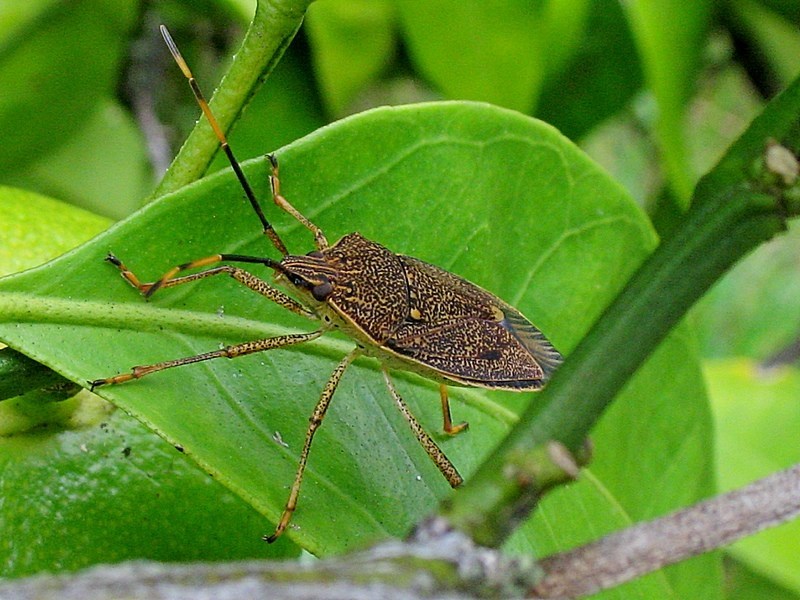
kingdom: Animalia
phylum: Arthropoda
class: Insecta
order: Hemiptera
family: Pentatomidae
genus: Poecilometis
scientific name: Poecilometis
